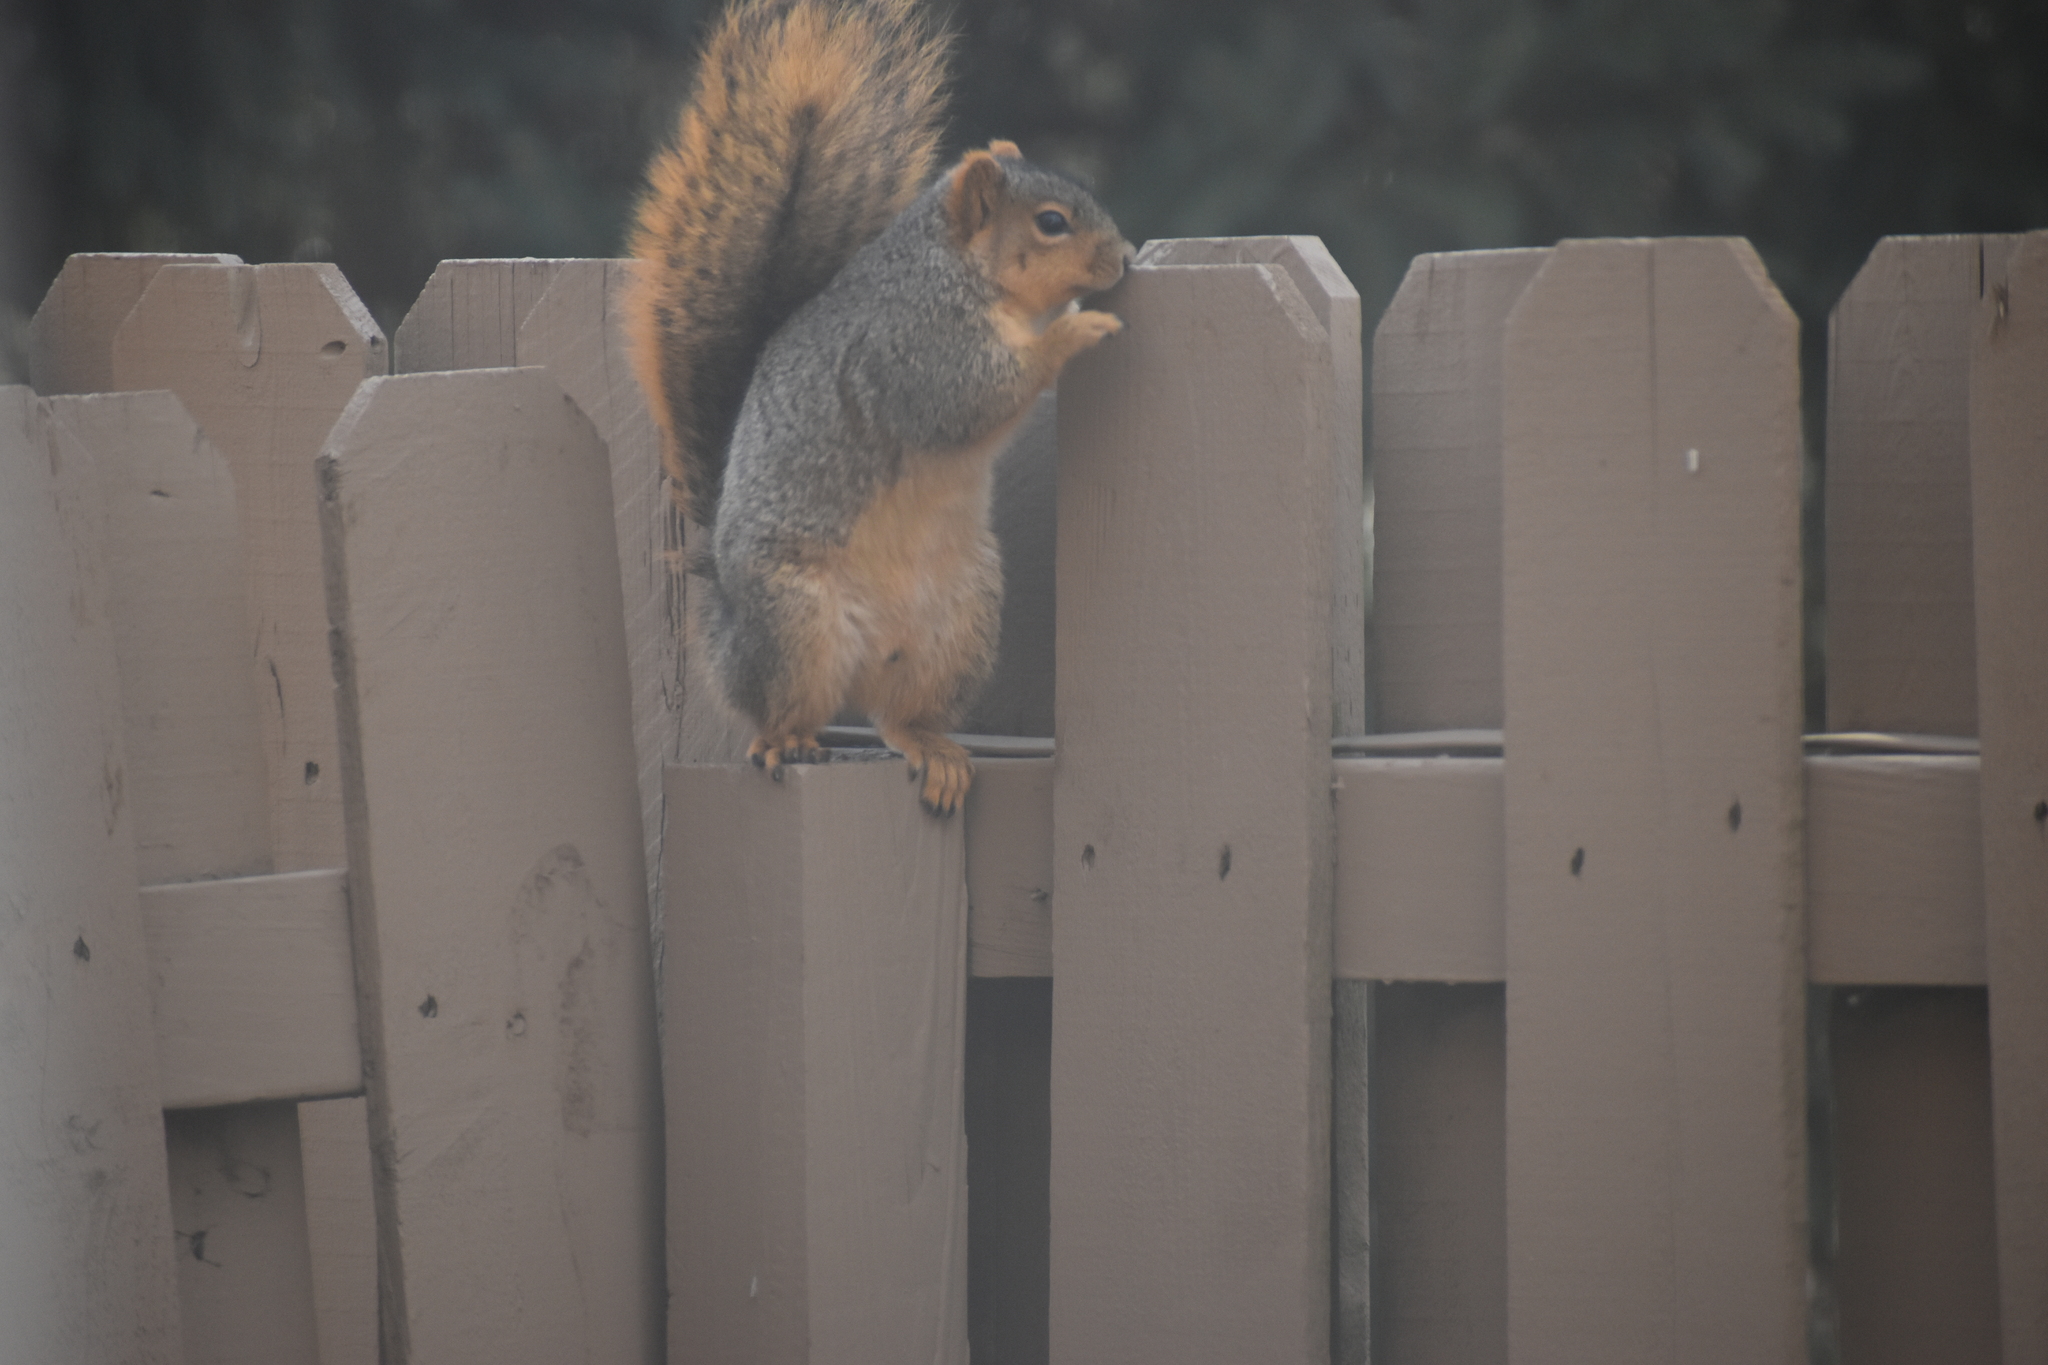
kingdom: Animalia
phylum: Chordata
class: Mammalia
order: Rodentia
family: Sciuridae
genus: Sciurus
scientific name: Sciurus niger
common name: Fox squirrel
